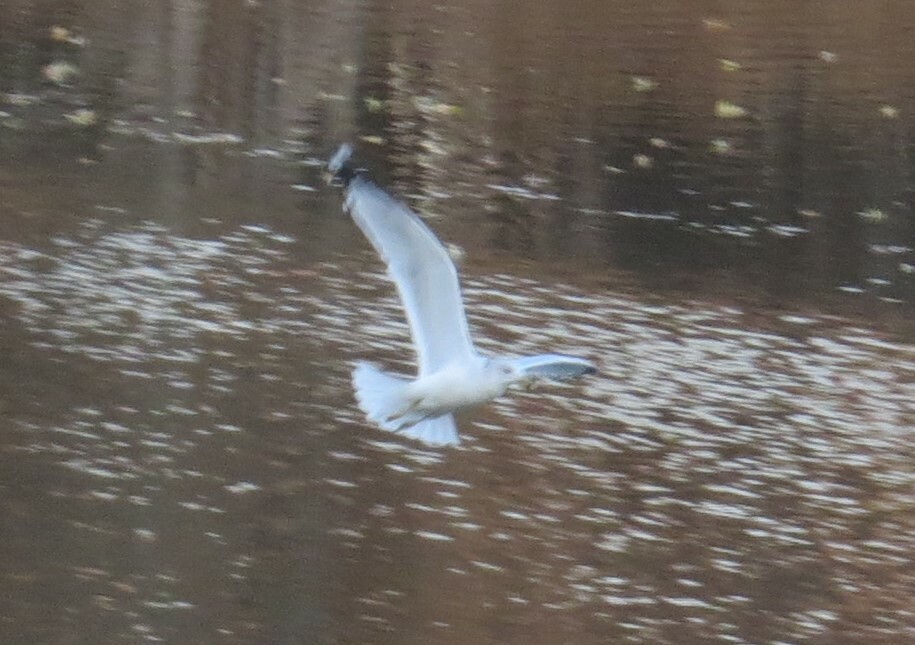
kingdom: Animalia
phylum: Chordata
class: Aves
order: Charadriiformes
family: Laridae
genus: Larus
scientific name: Larus delawarensis
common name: Ring-billed gull
